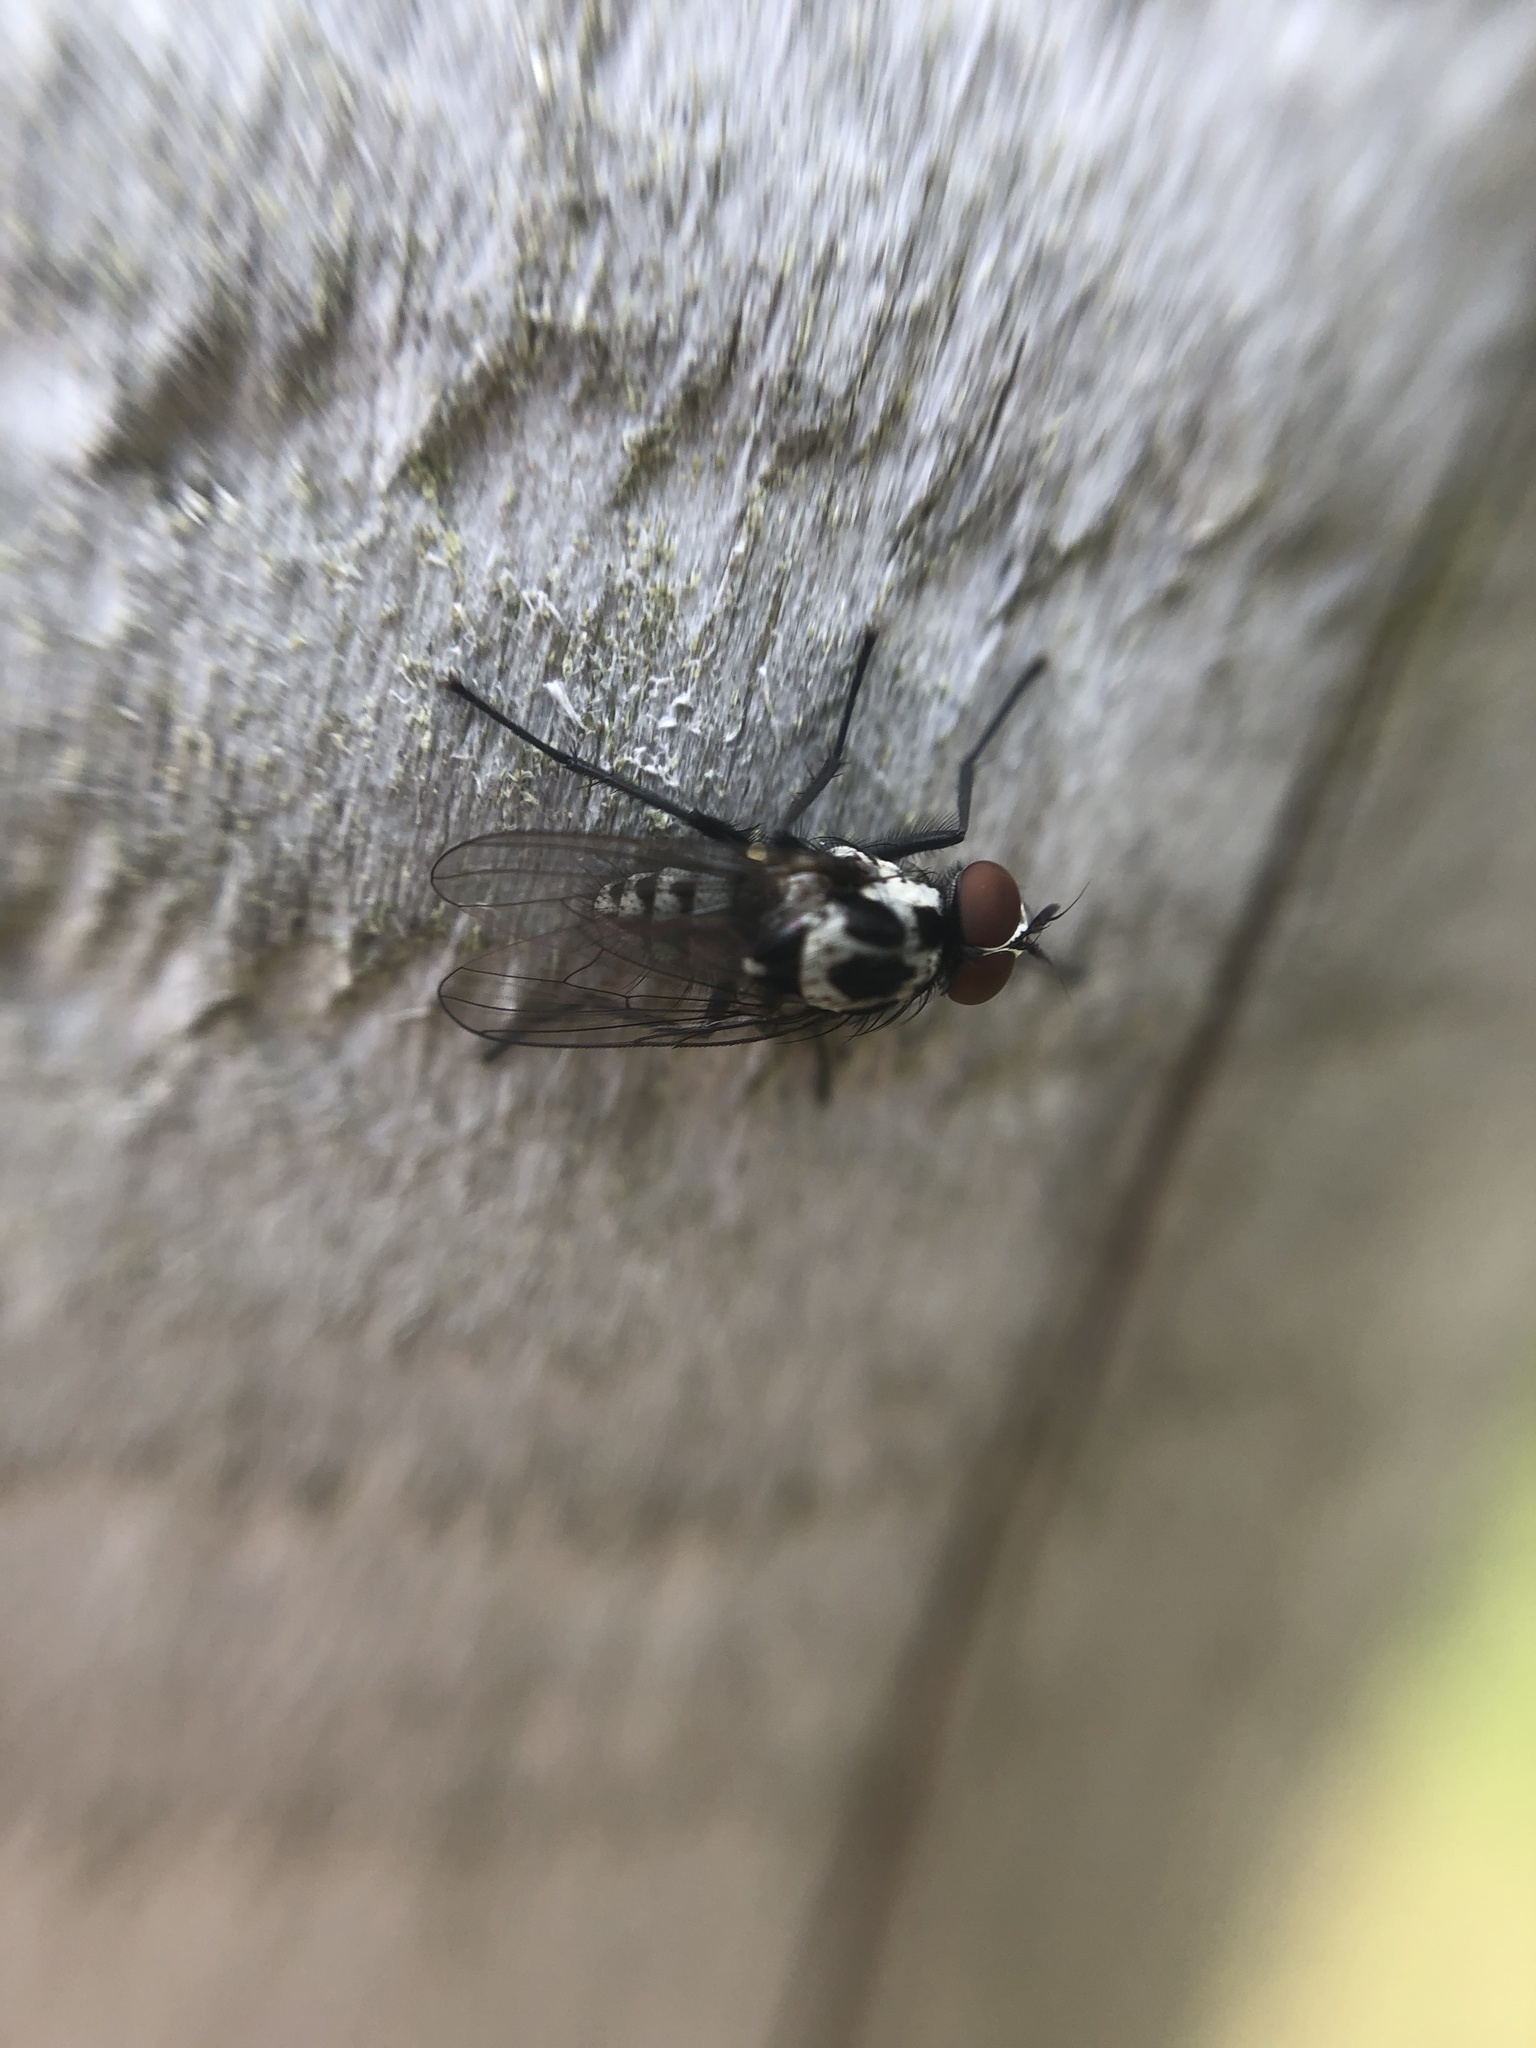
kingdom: Animalia
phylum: Arthropoda
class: Insecta
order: Diptera
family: Anthomyiidae
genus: Anthomyia
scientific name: Anthomyia procellaris
